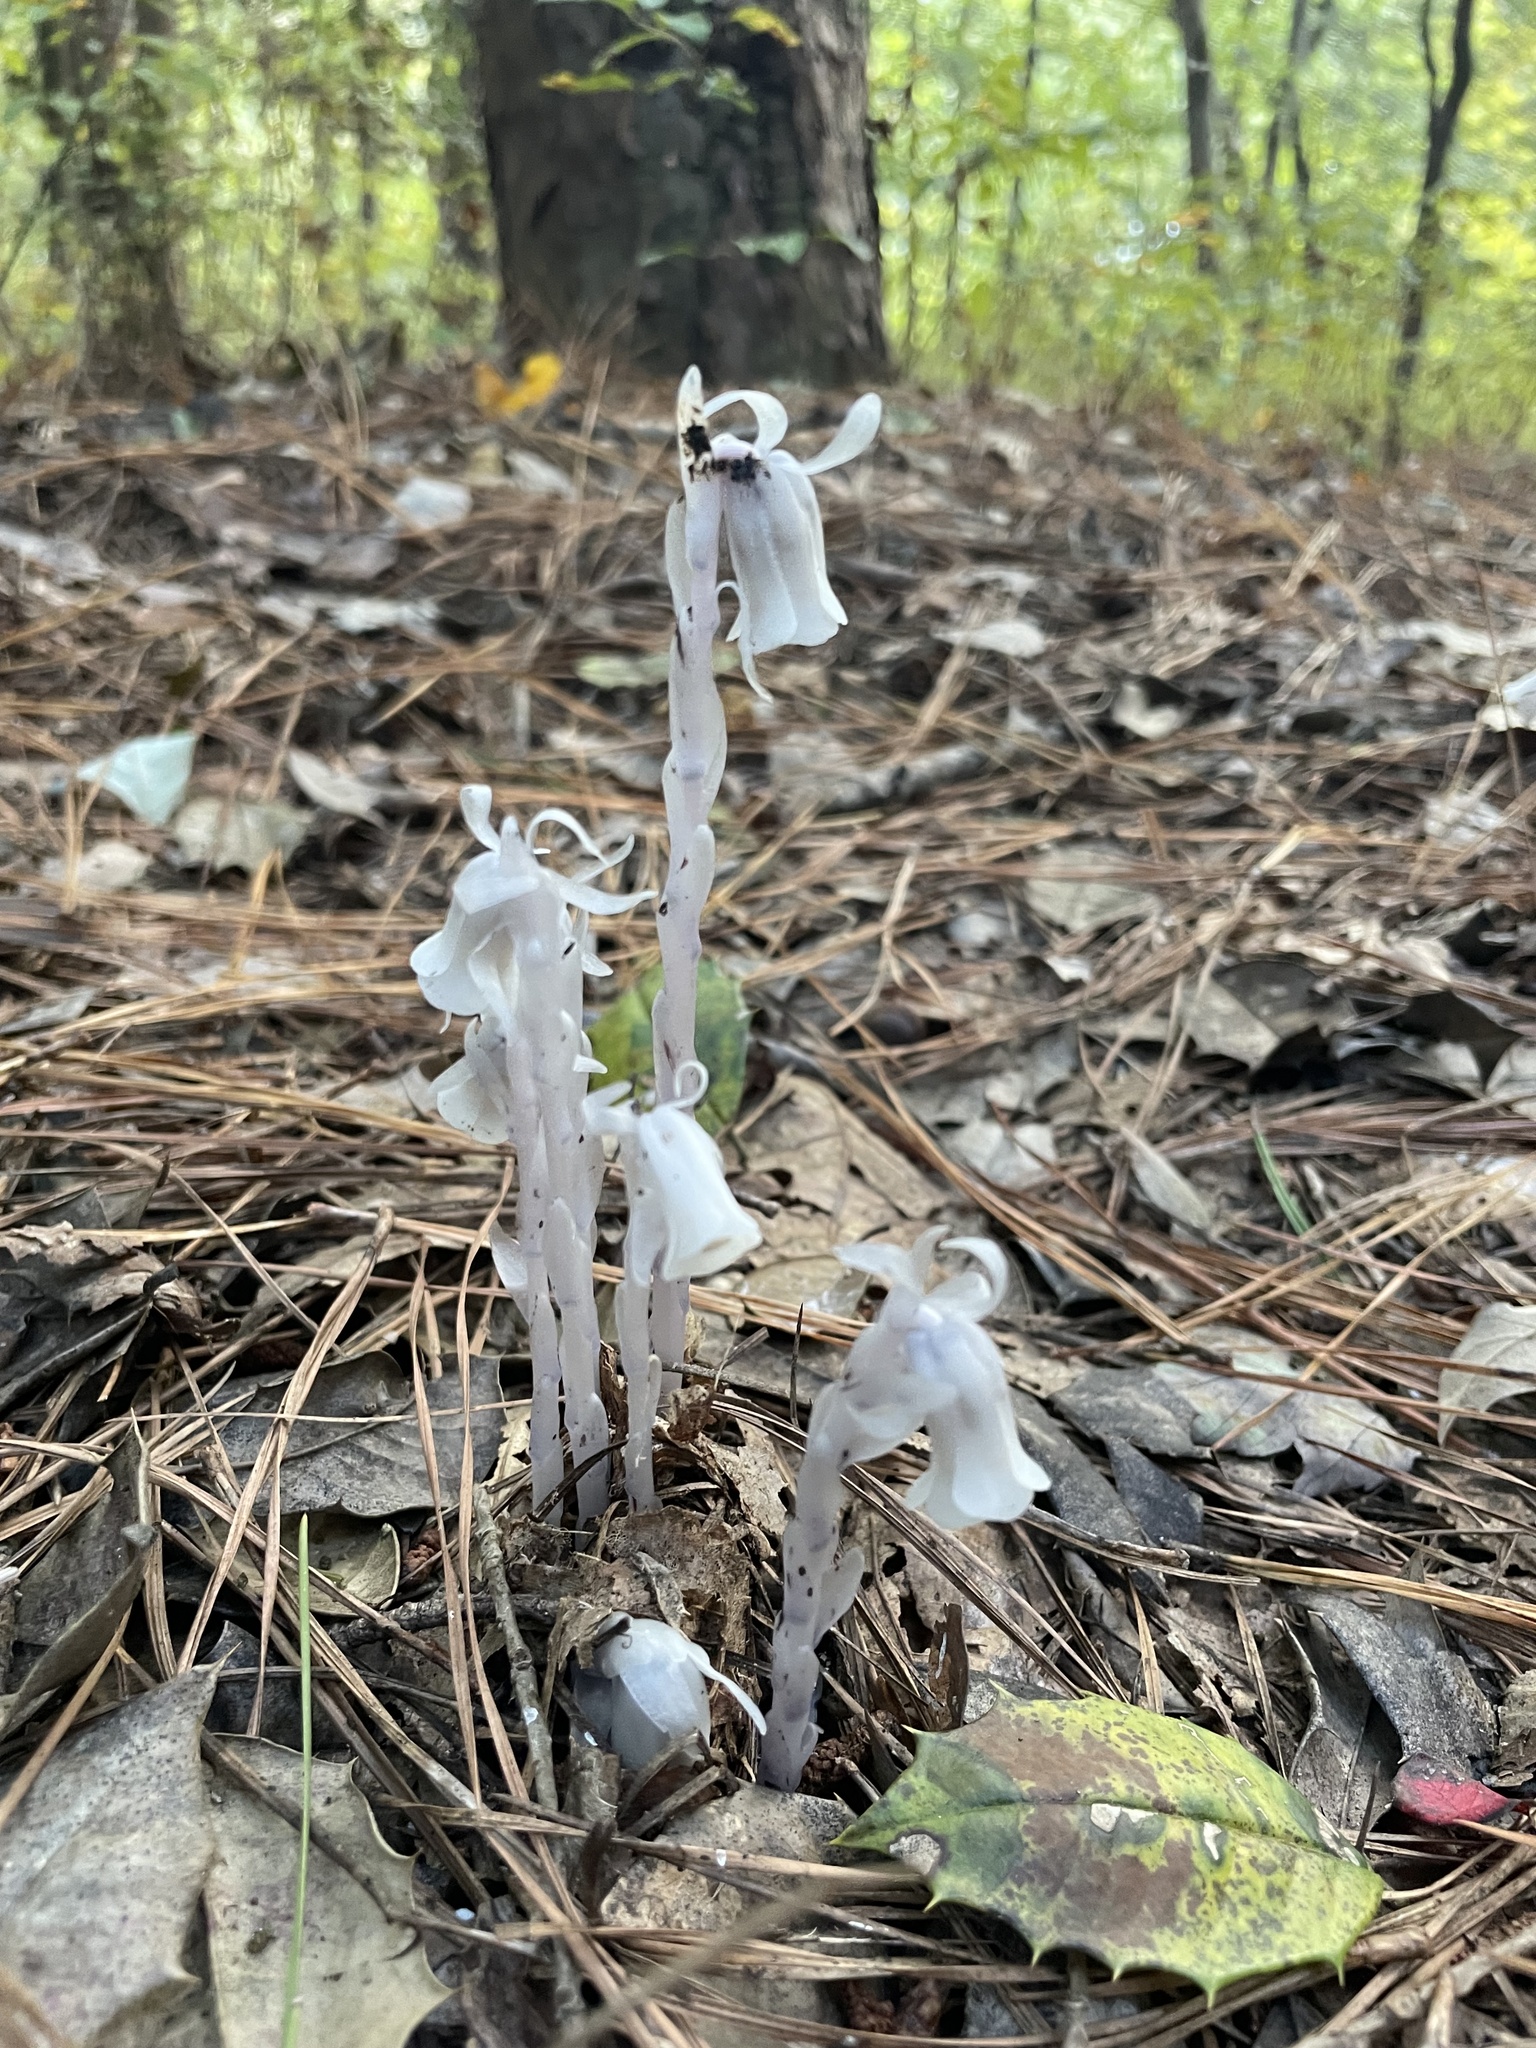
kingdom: Plantae
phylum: Tracheophyta
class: Magnoliopsida
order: Ericales
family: Ericaceae
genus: Monotropa
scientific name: Monotropa uniflora
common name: Convulsion root
